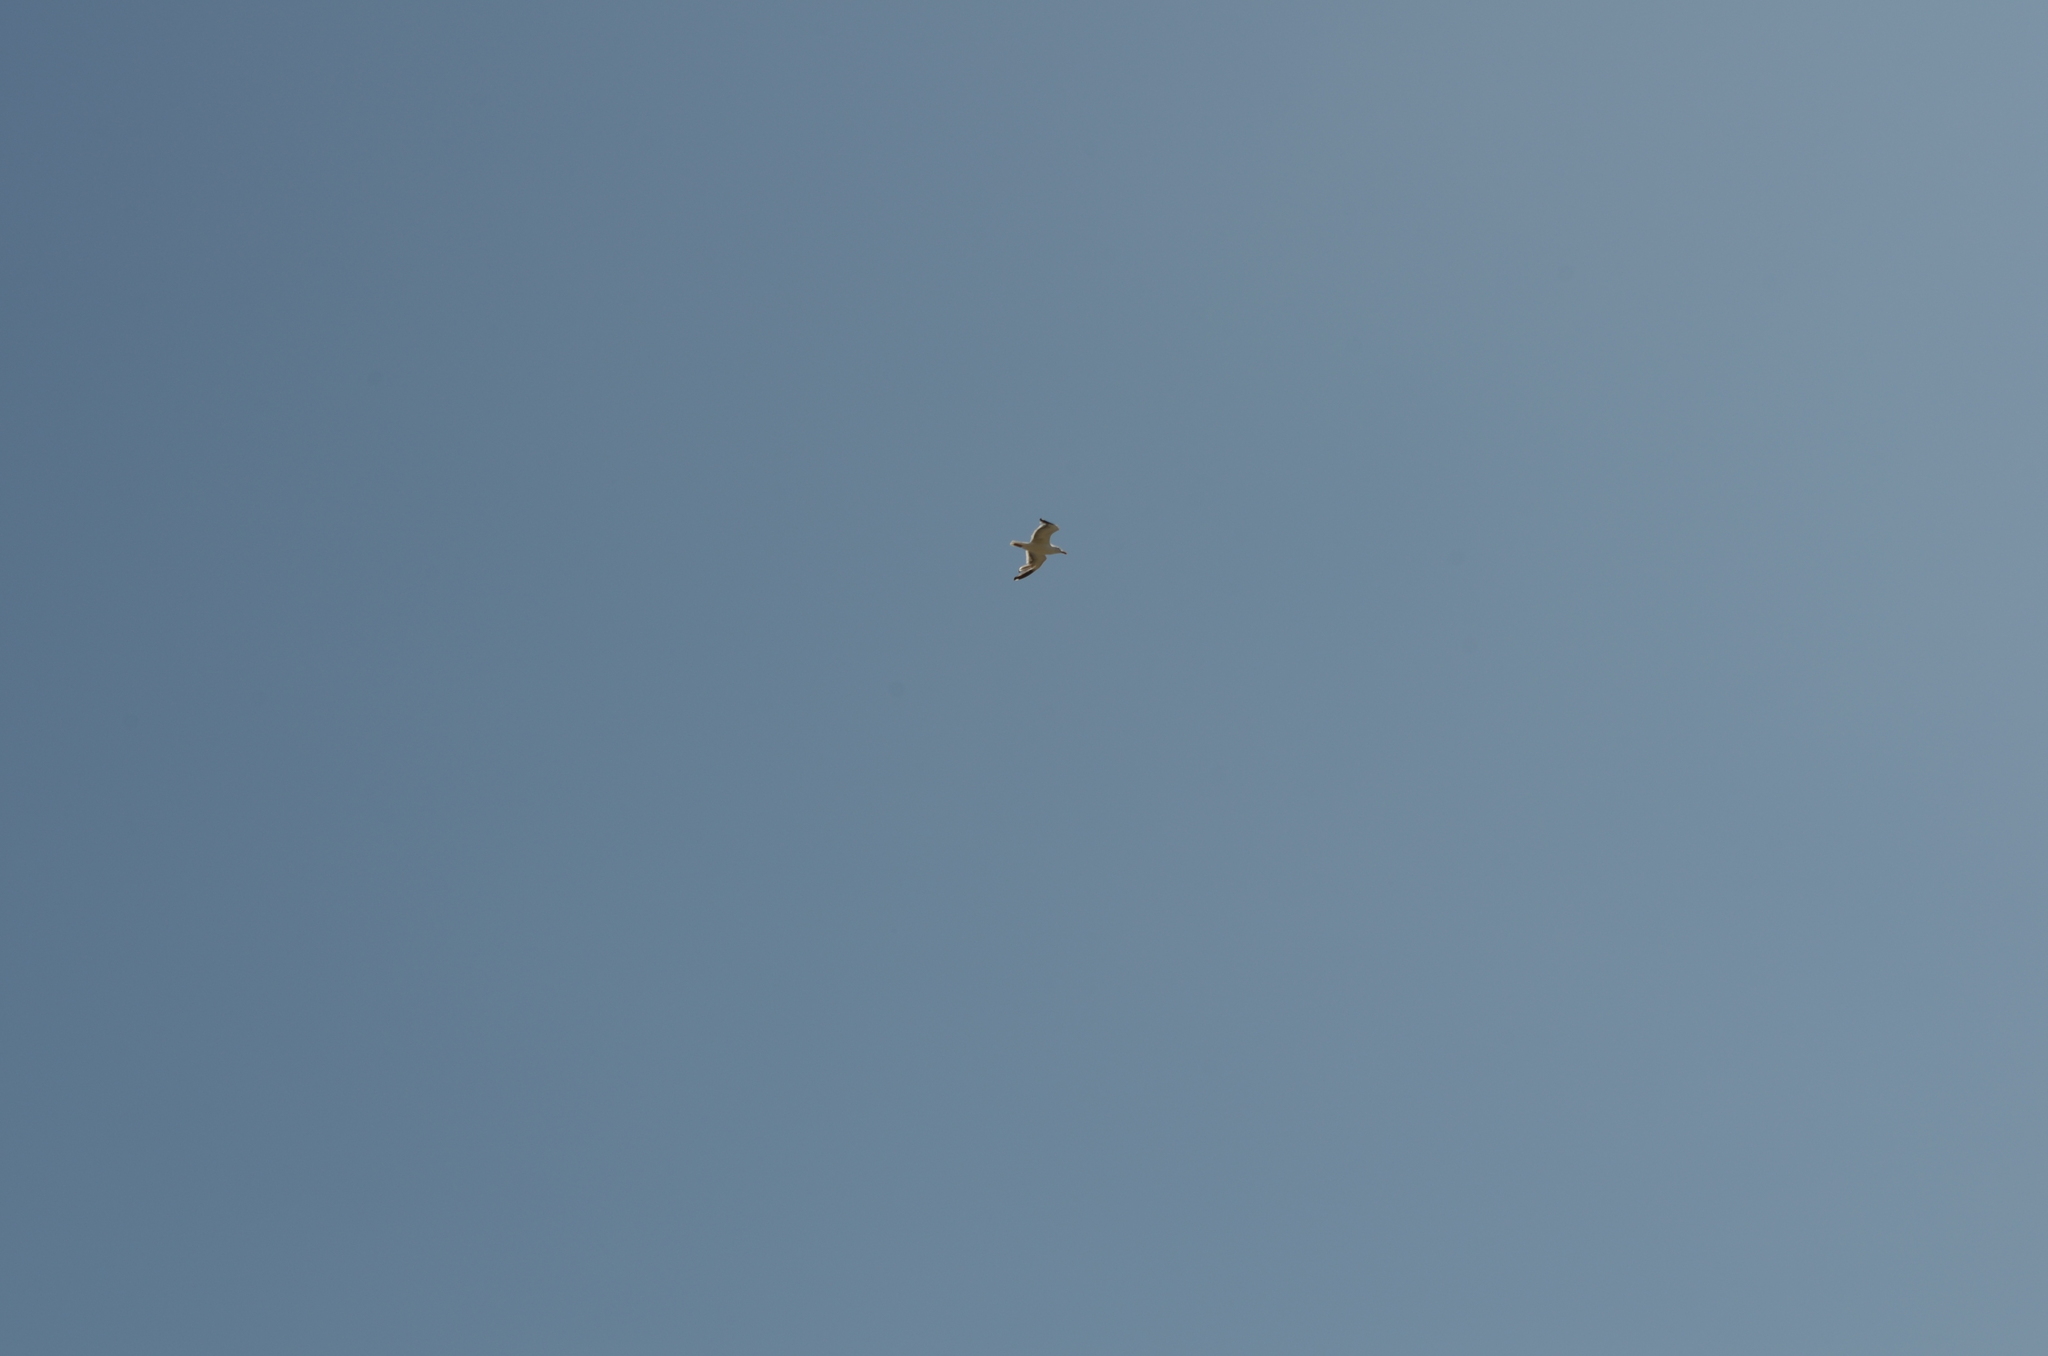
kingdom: Animalia
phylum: Chordata
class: Aves
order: Charadriiformes
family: Laridae
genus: Larus
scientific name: Larus occidentalis
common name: Western gull
